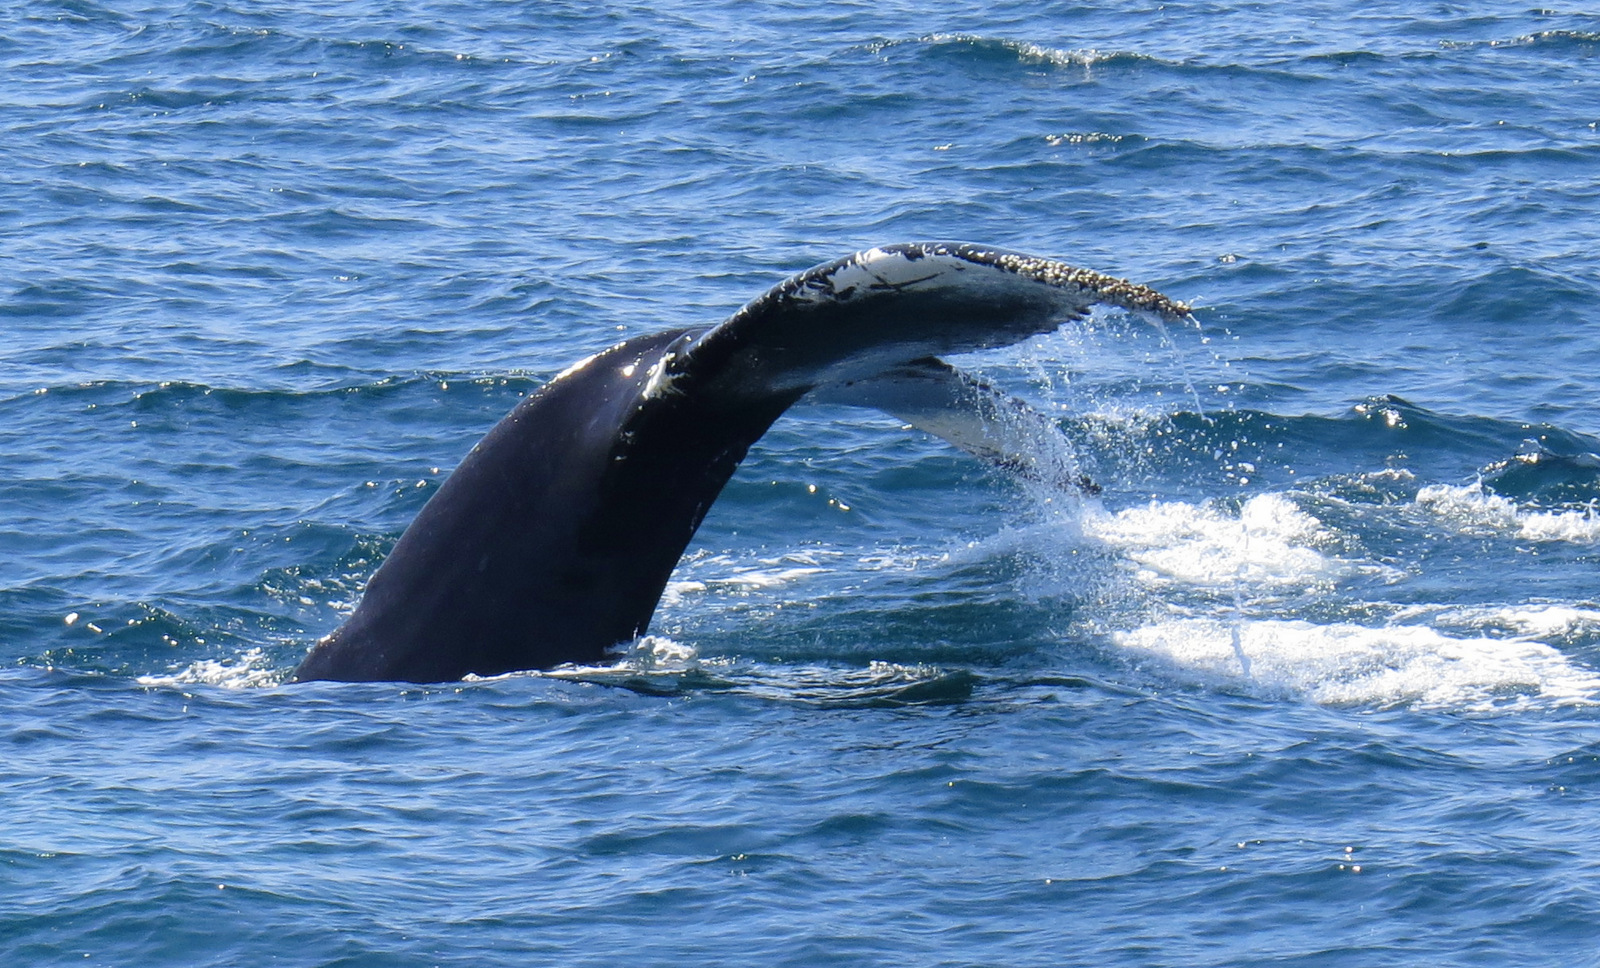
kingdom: Animalia
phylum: Chordata
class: Mammalia
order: Cetacea
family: Balaenopteridae
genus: Megaptera
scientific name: Megaptera novaeangliae
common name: Humpback whale
